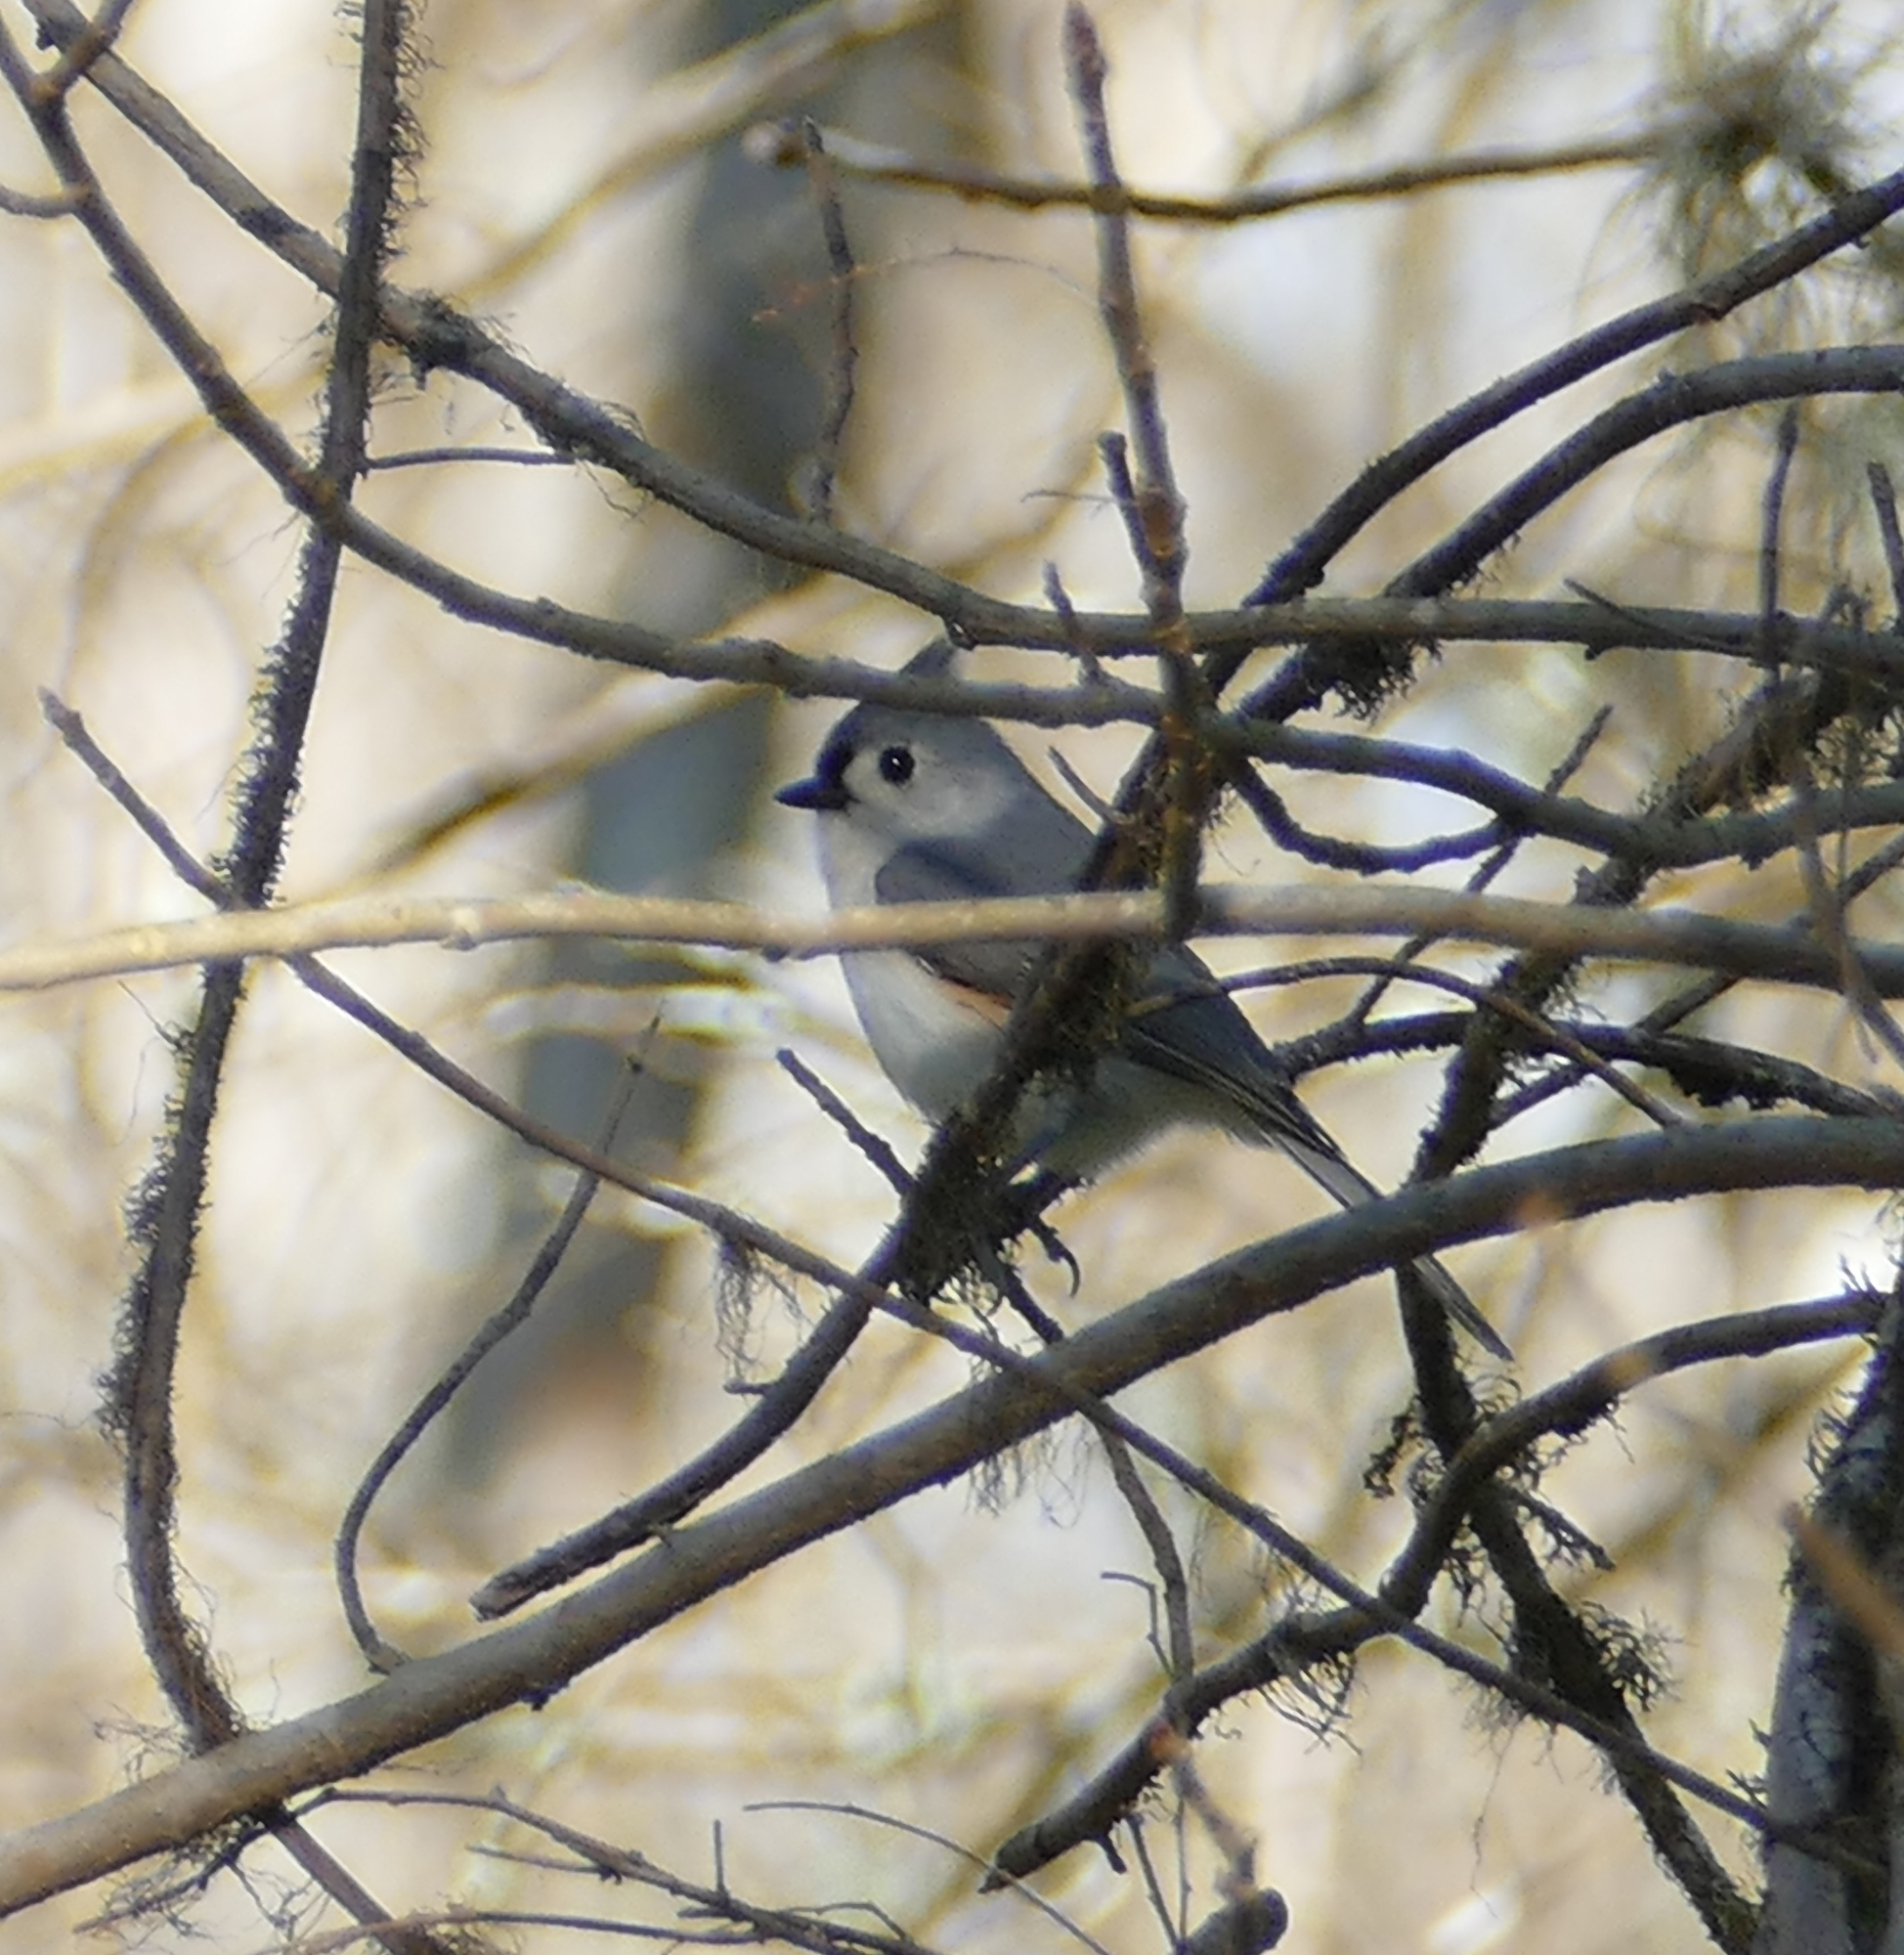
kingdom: Animalia
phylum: Chordata
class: Aves
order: Passeriformes
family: Paridae
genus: Baeolophus
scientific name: Baeolophus bicolor
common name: Tufted titmouse
